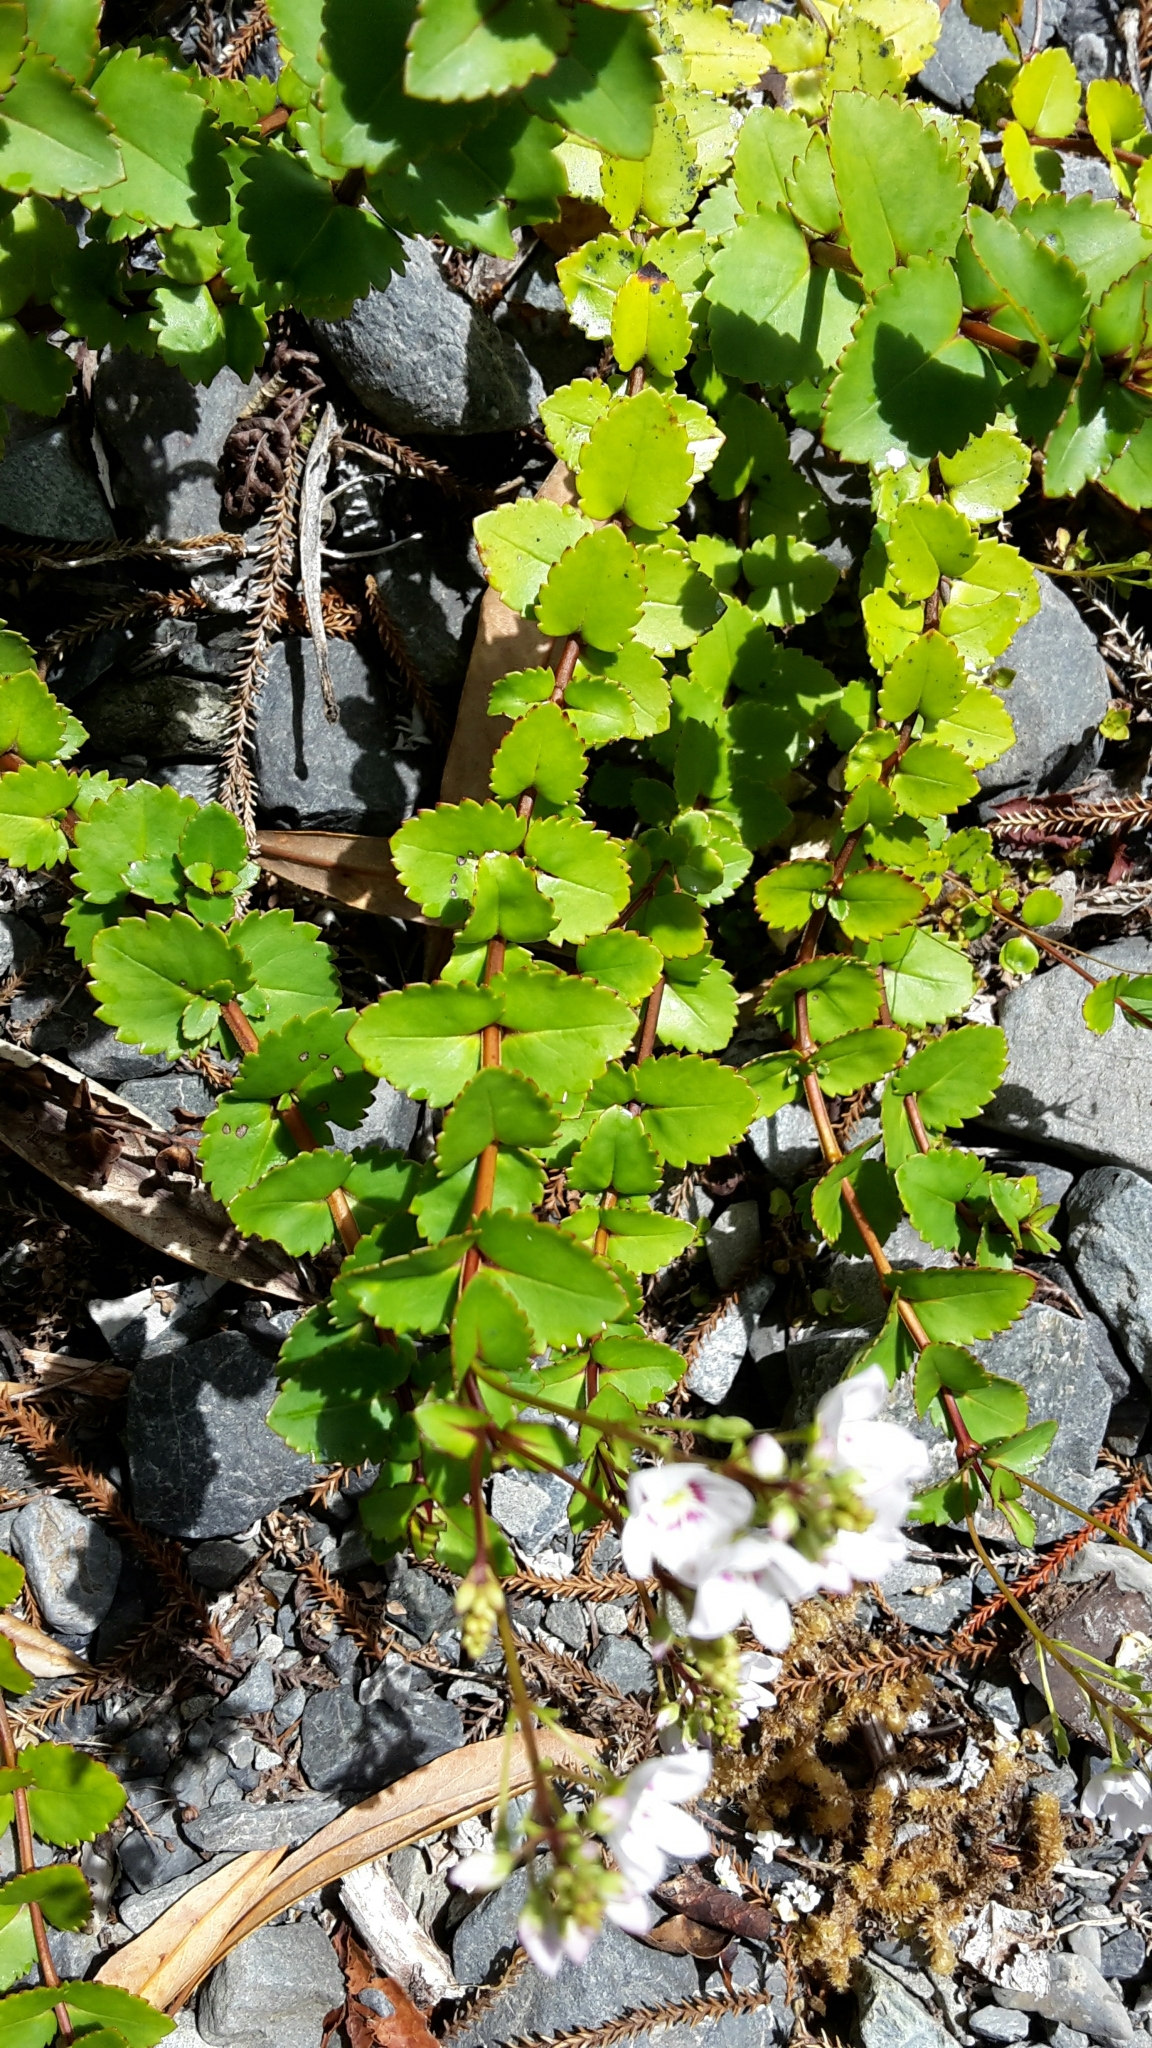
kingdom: Plantae
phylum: Tracheophyta
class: Magnoliopsida
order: Lamiales
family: Plantaginaceae
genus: Veronica
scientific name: Veronica lanceolata
